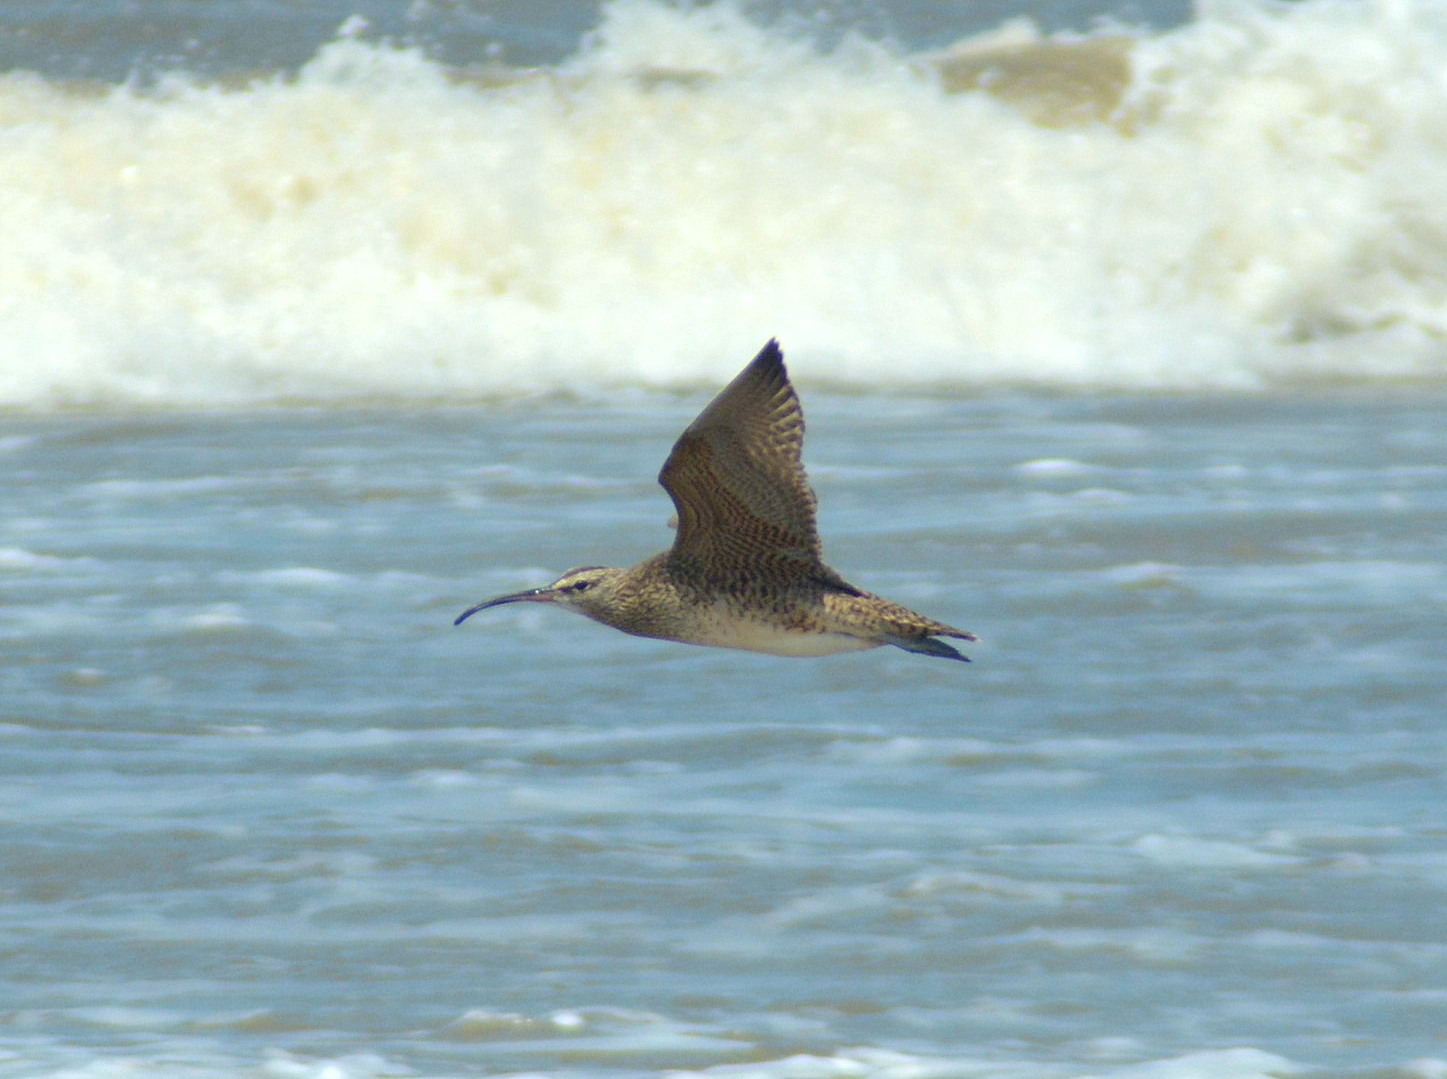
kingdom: Animalia
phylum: Chordata
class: Aves
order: Charadriiformes
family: Scolopacidae
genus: Numenius
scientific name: Numenius hudsonicus
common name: Hudsonian whimbrel
